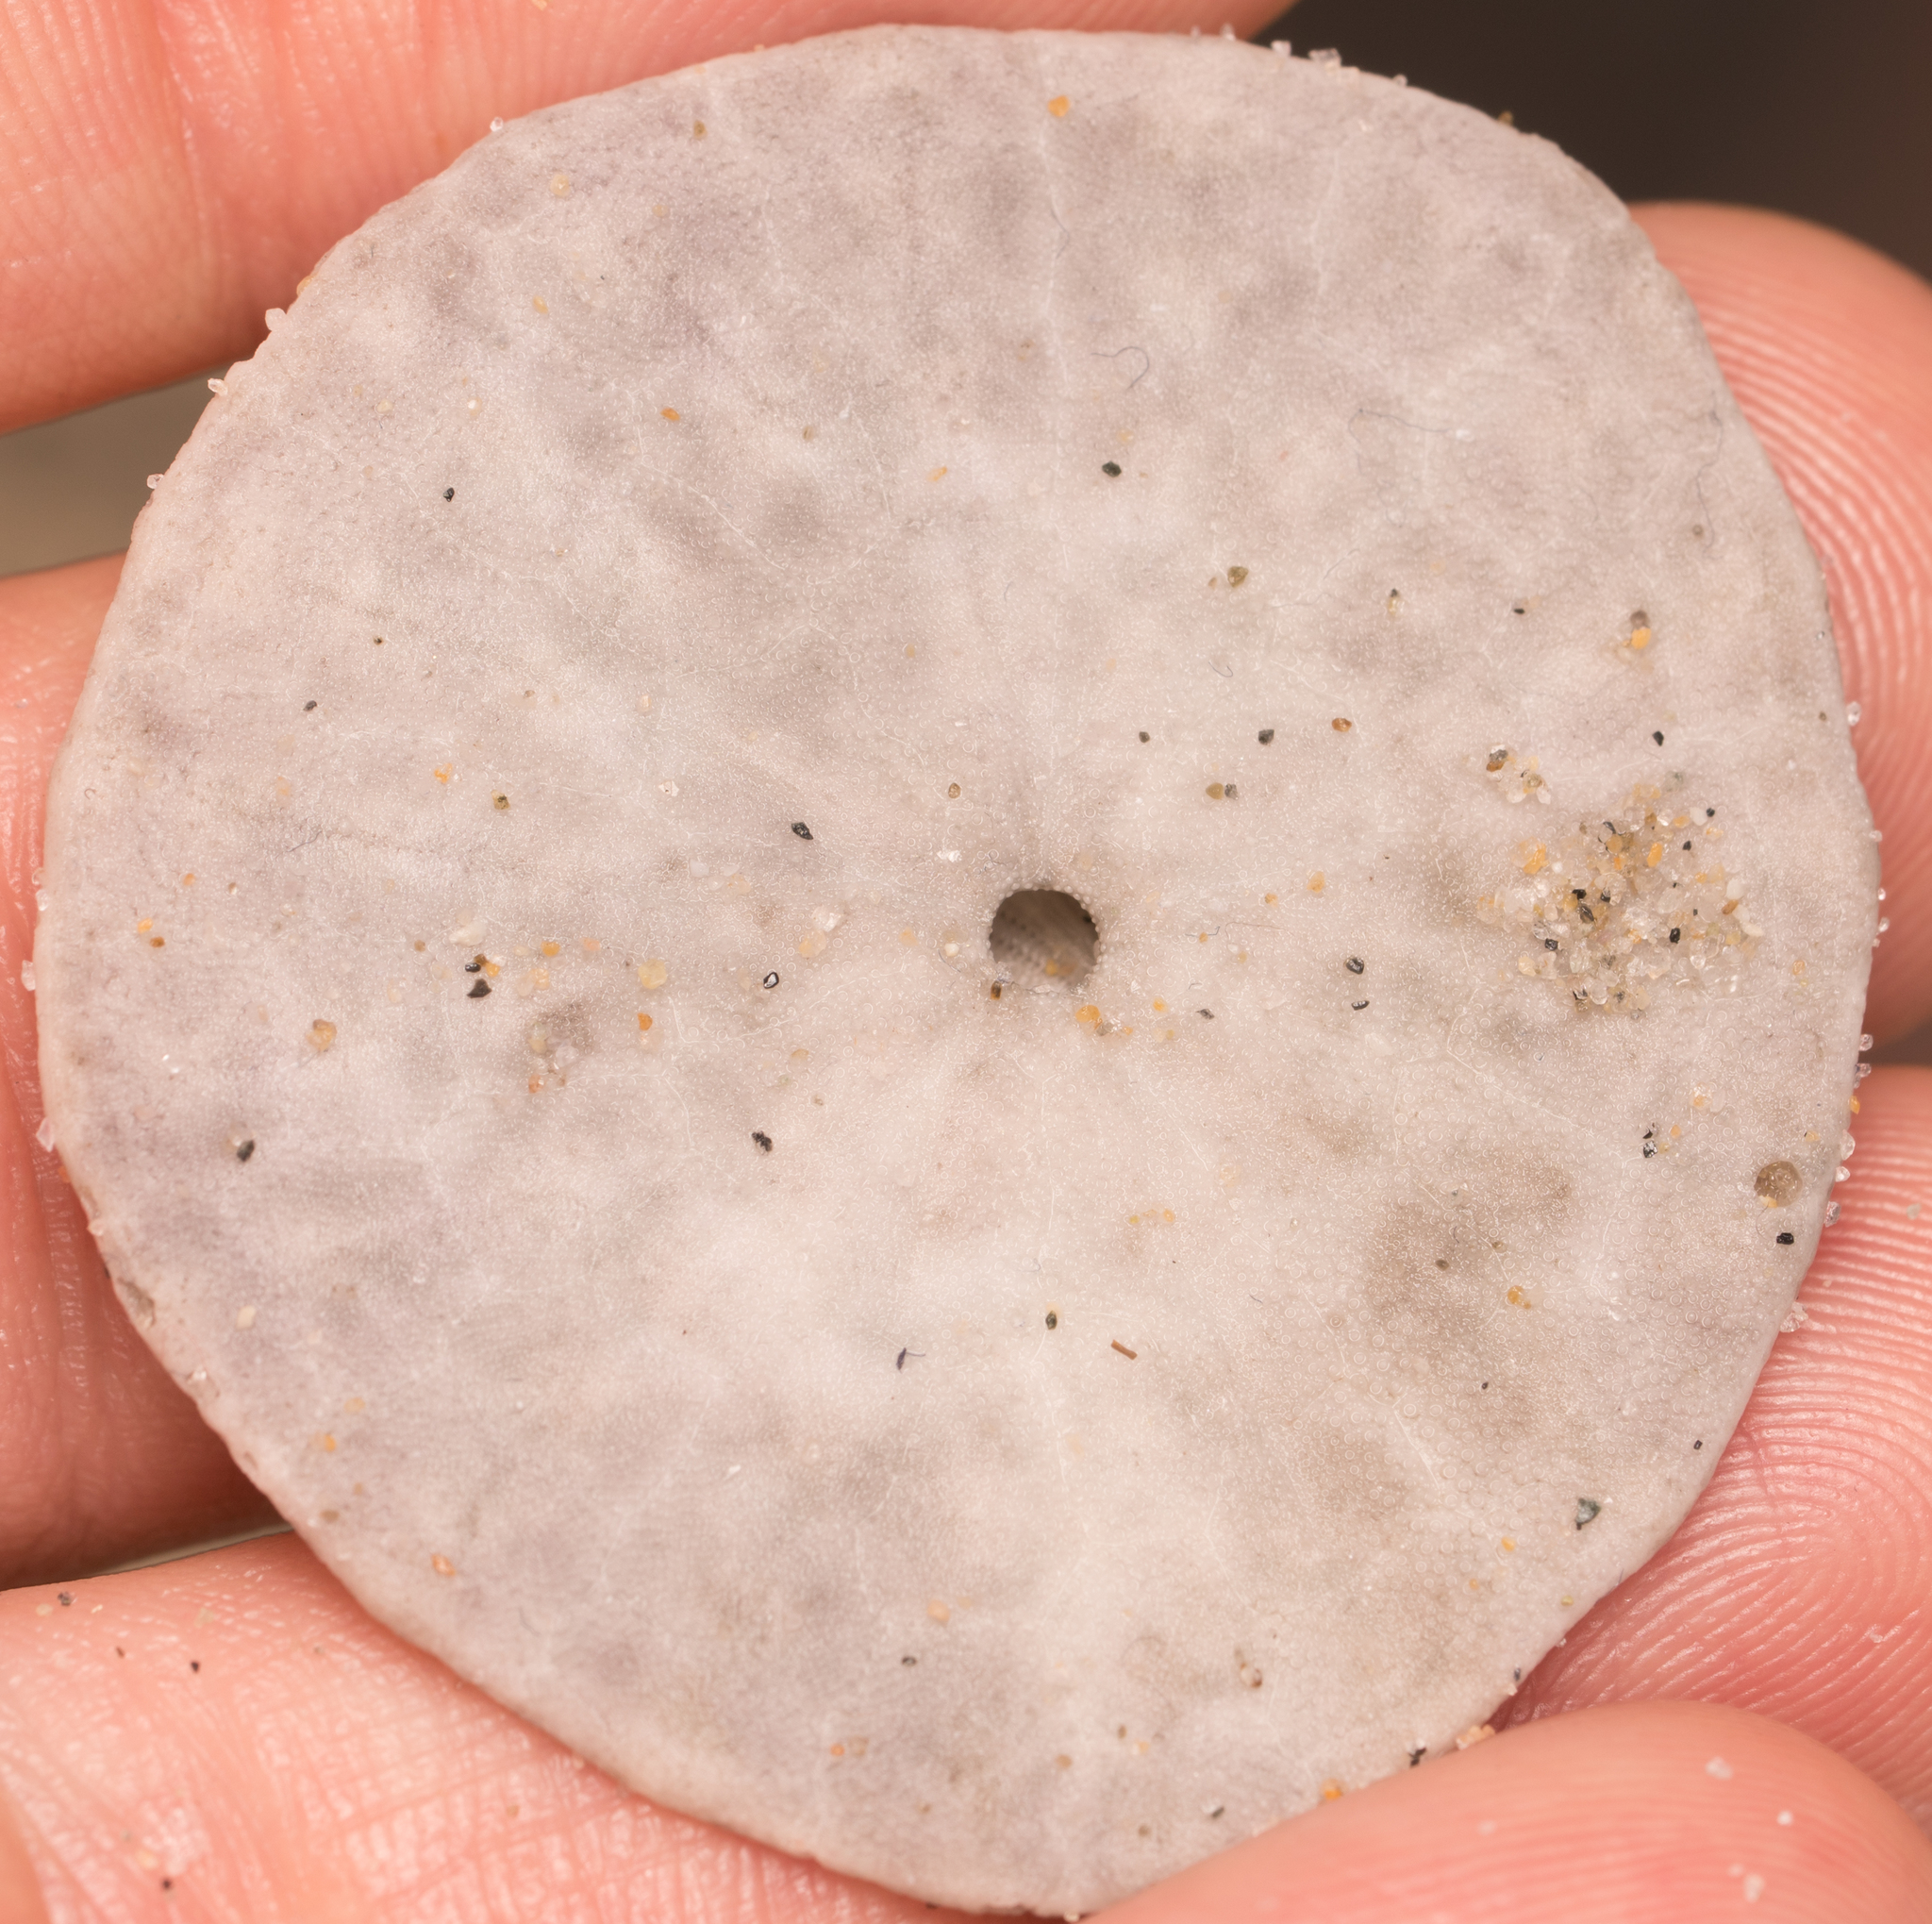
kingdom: Animalia
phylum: Echinodermata
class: Echinoidea
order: Echinolampadacea
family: Dendrasteridae
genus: Dendraster
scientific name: Dendraster excentricus
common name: Eccentric sand dollar sea urchin
